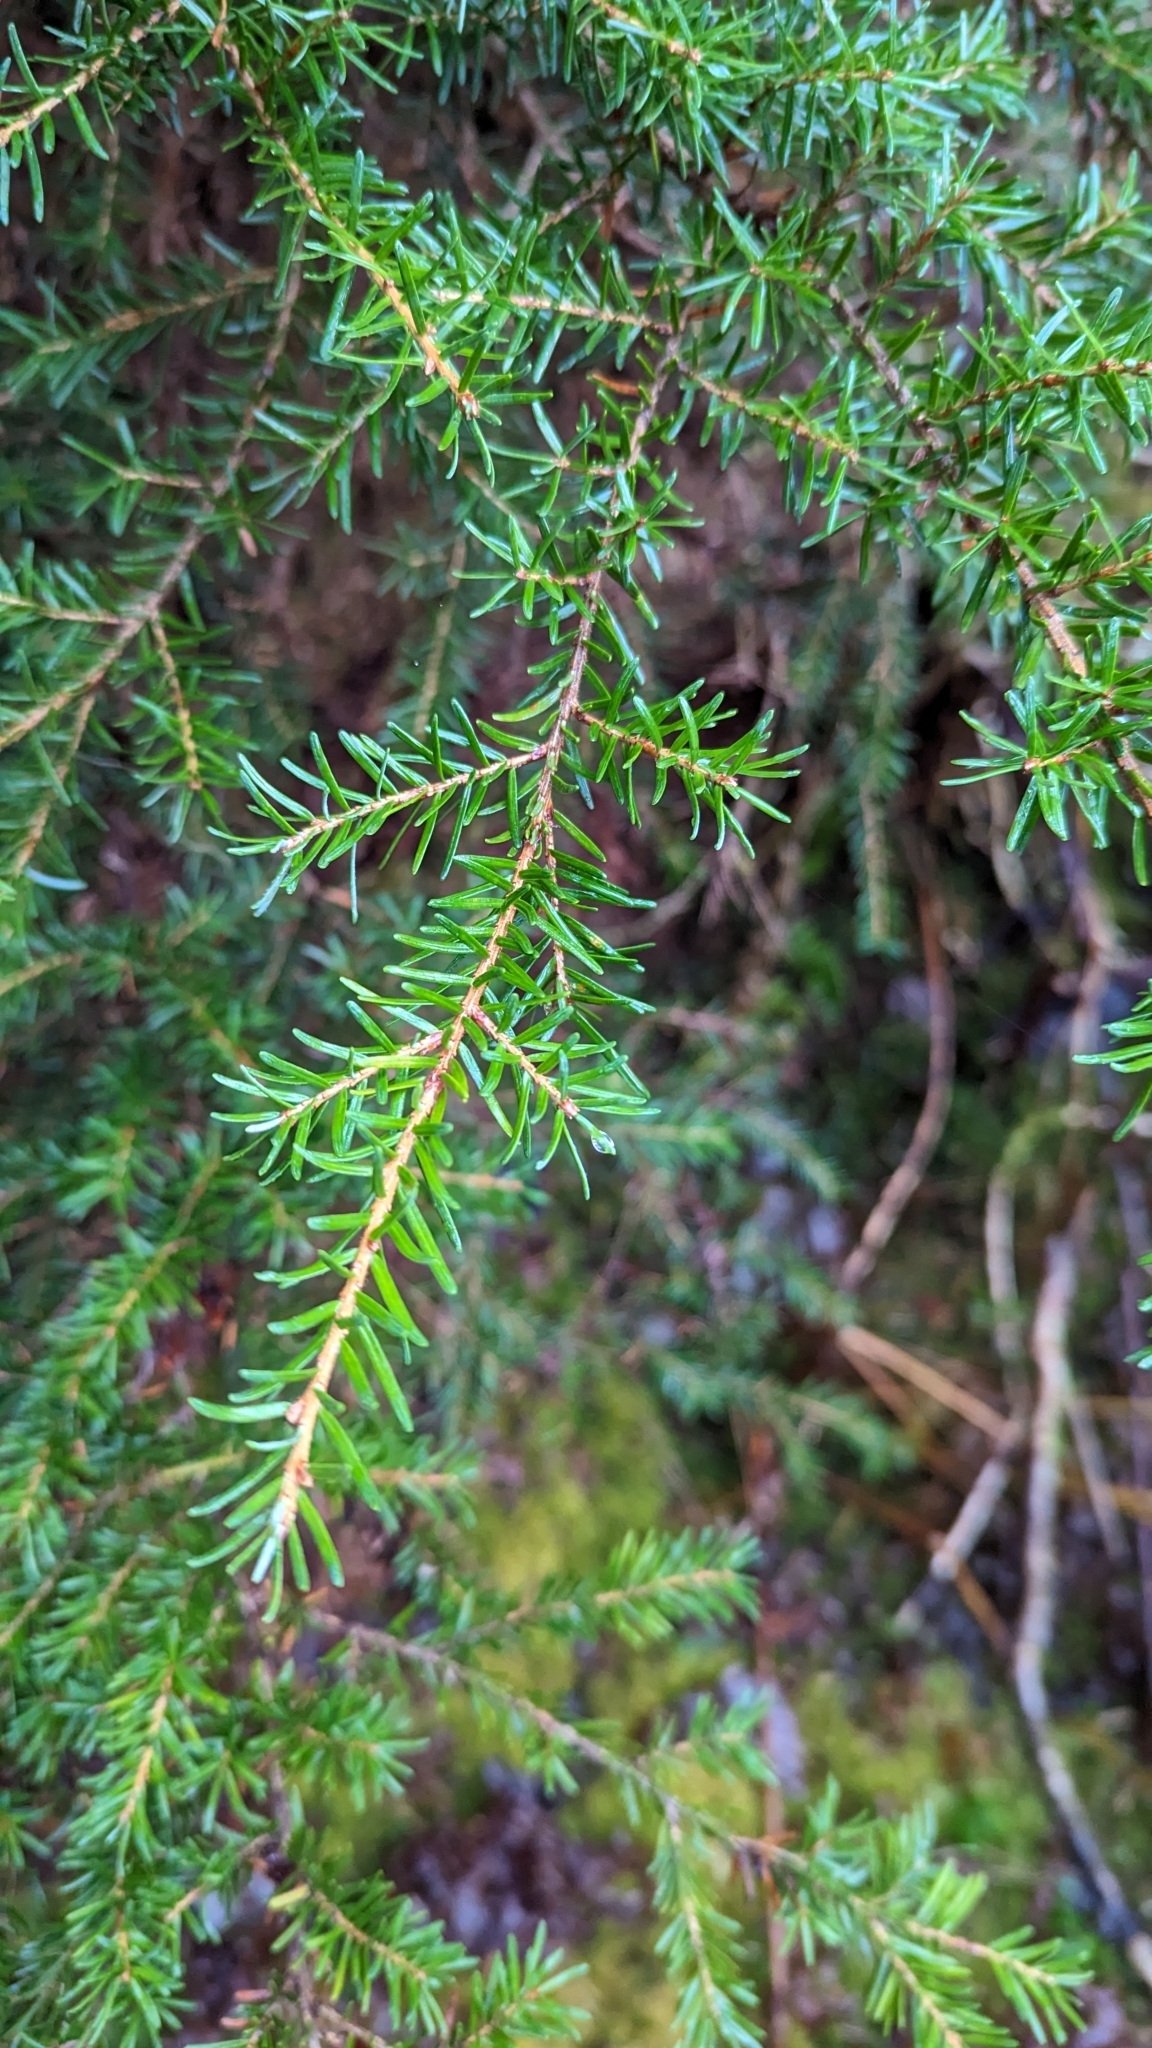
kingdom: Plantae
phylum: Tracheophyta
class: Pinopsida
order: Pinales
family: Pinaceae
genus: Tsuga
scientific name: Tsuga mertensiana
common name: Mountain hemlock
